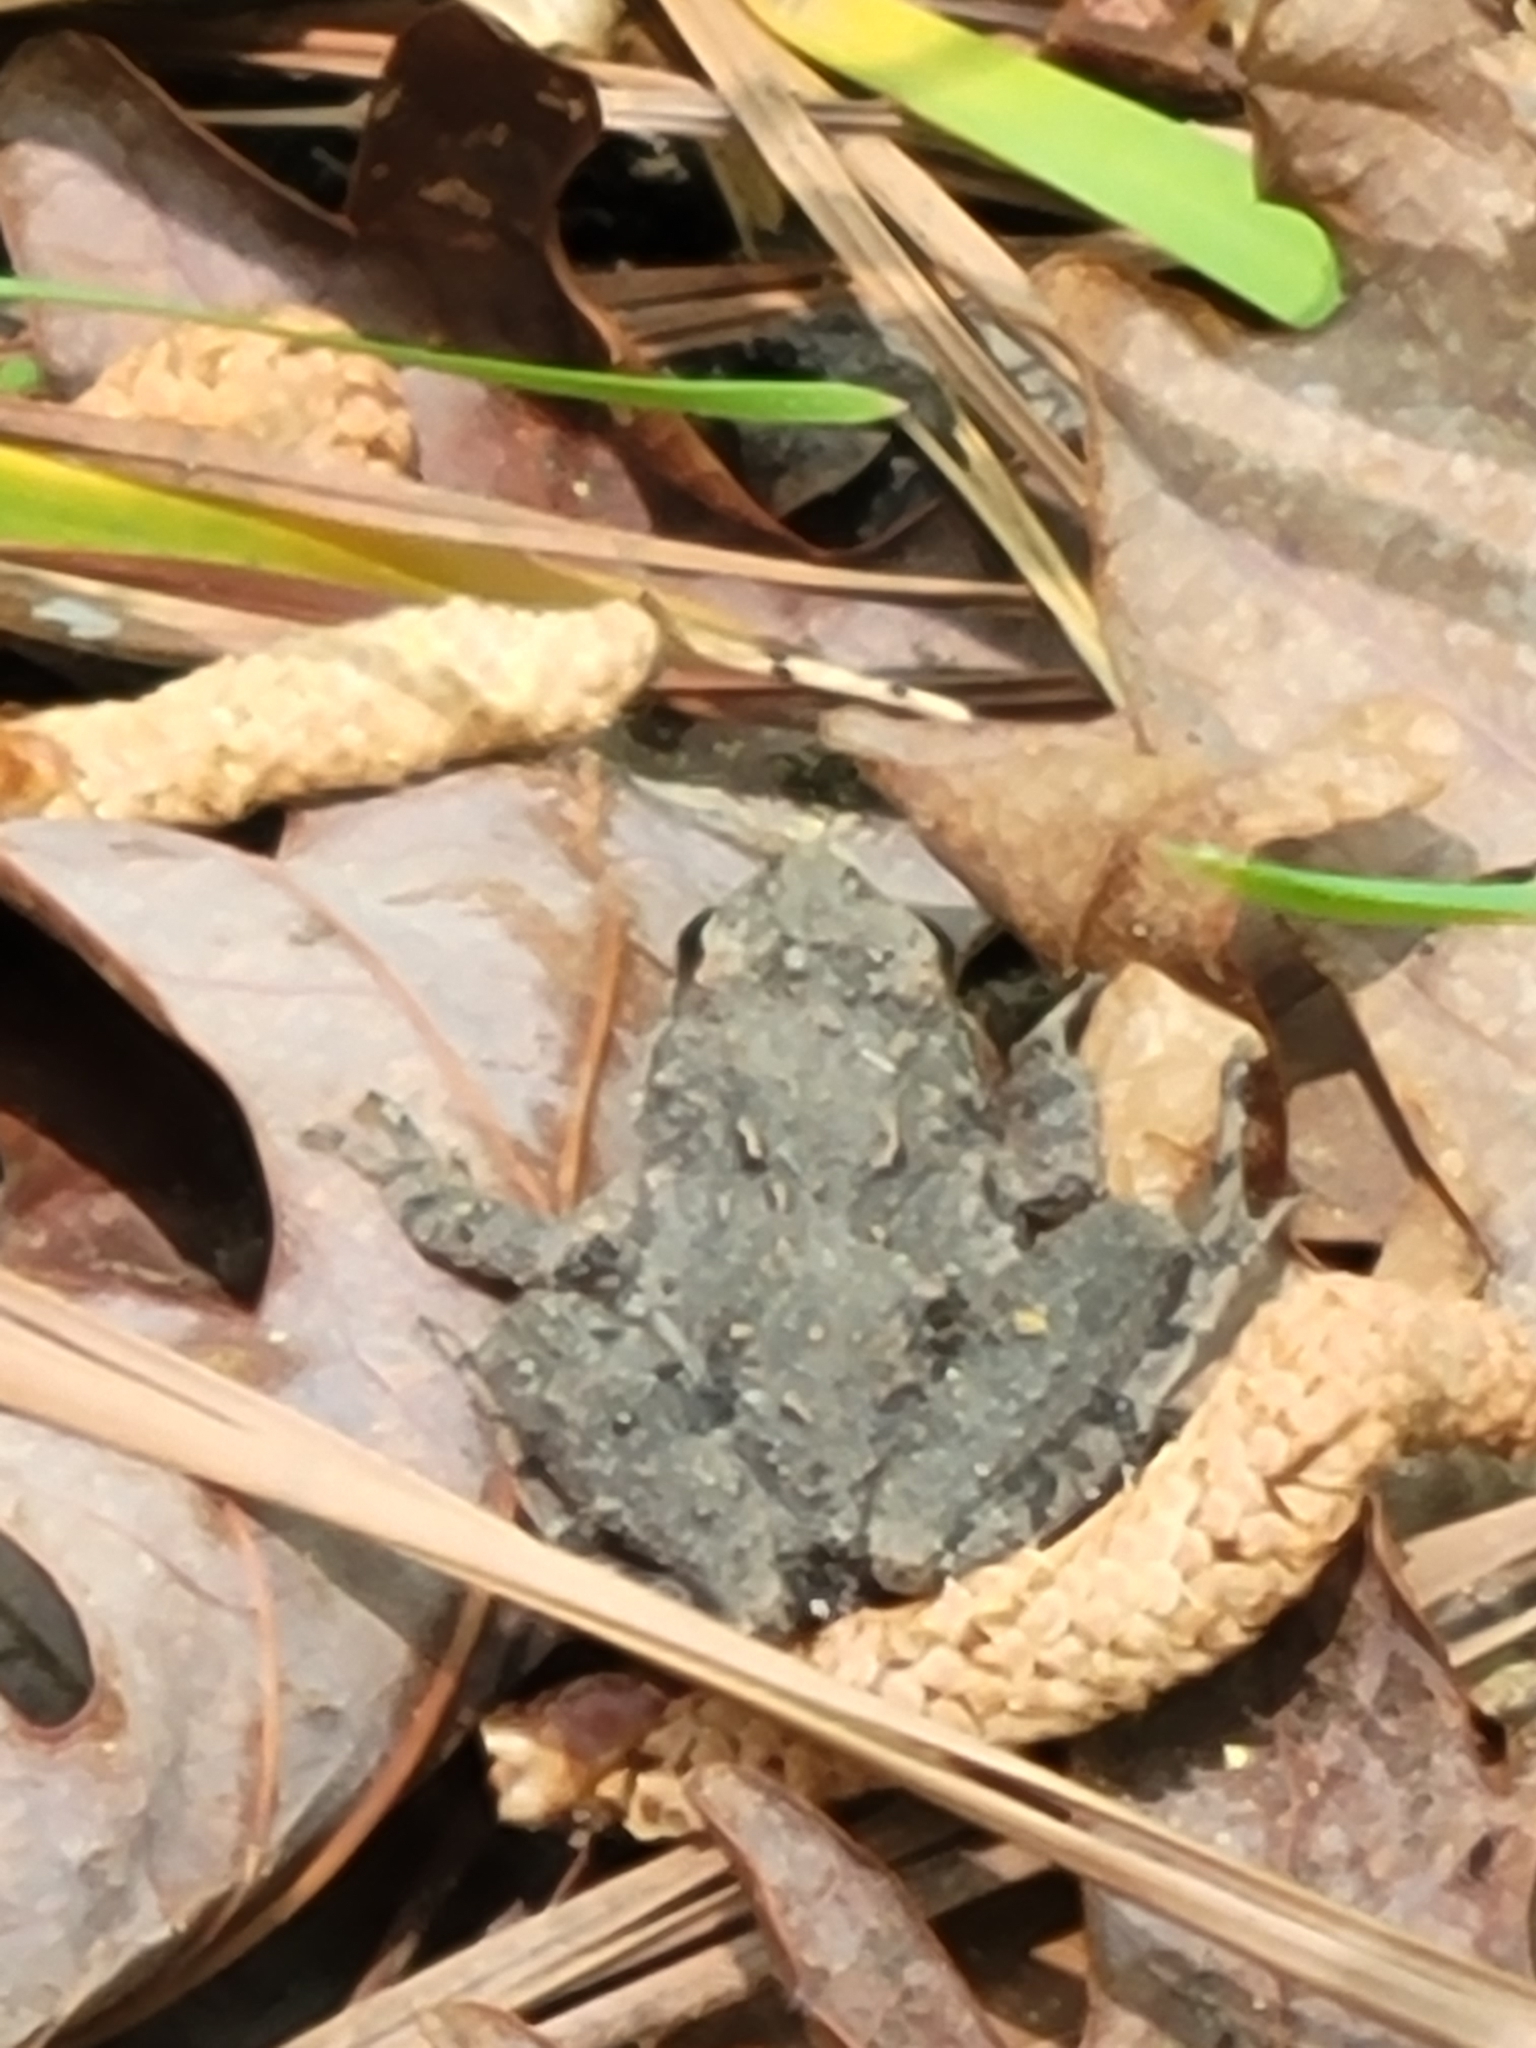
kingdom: Animalia
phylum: Chordata
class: Amphibia
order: Anura
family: Hylidae
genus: Acris
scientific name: Acris crepitans
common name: Northern cricket frog
